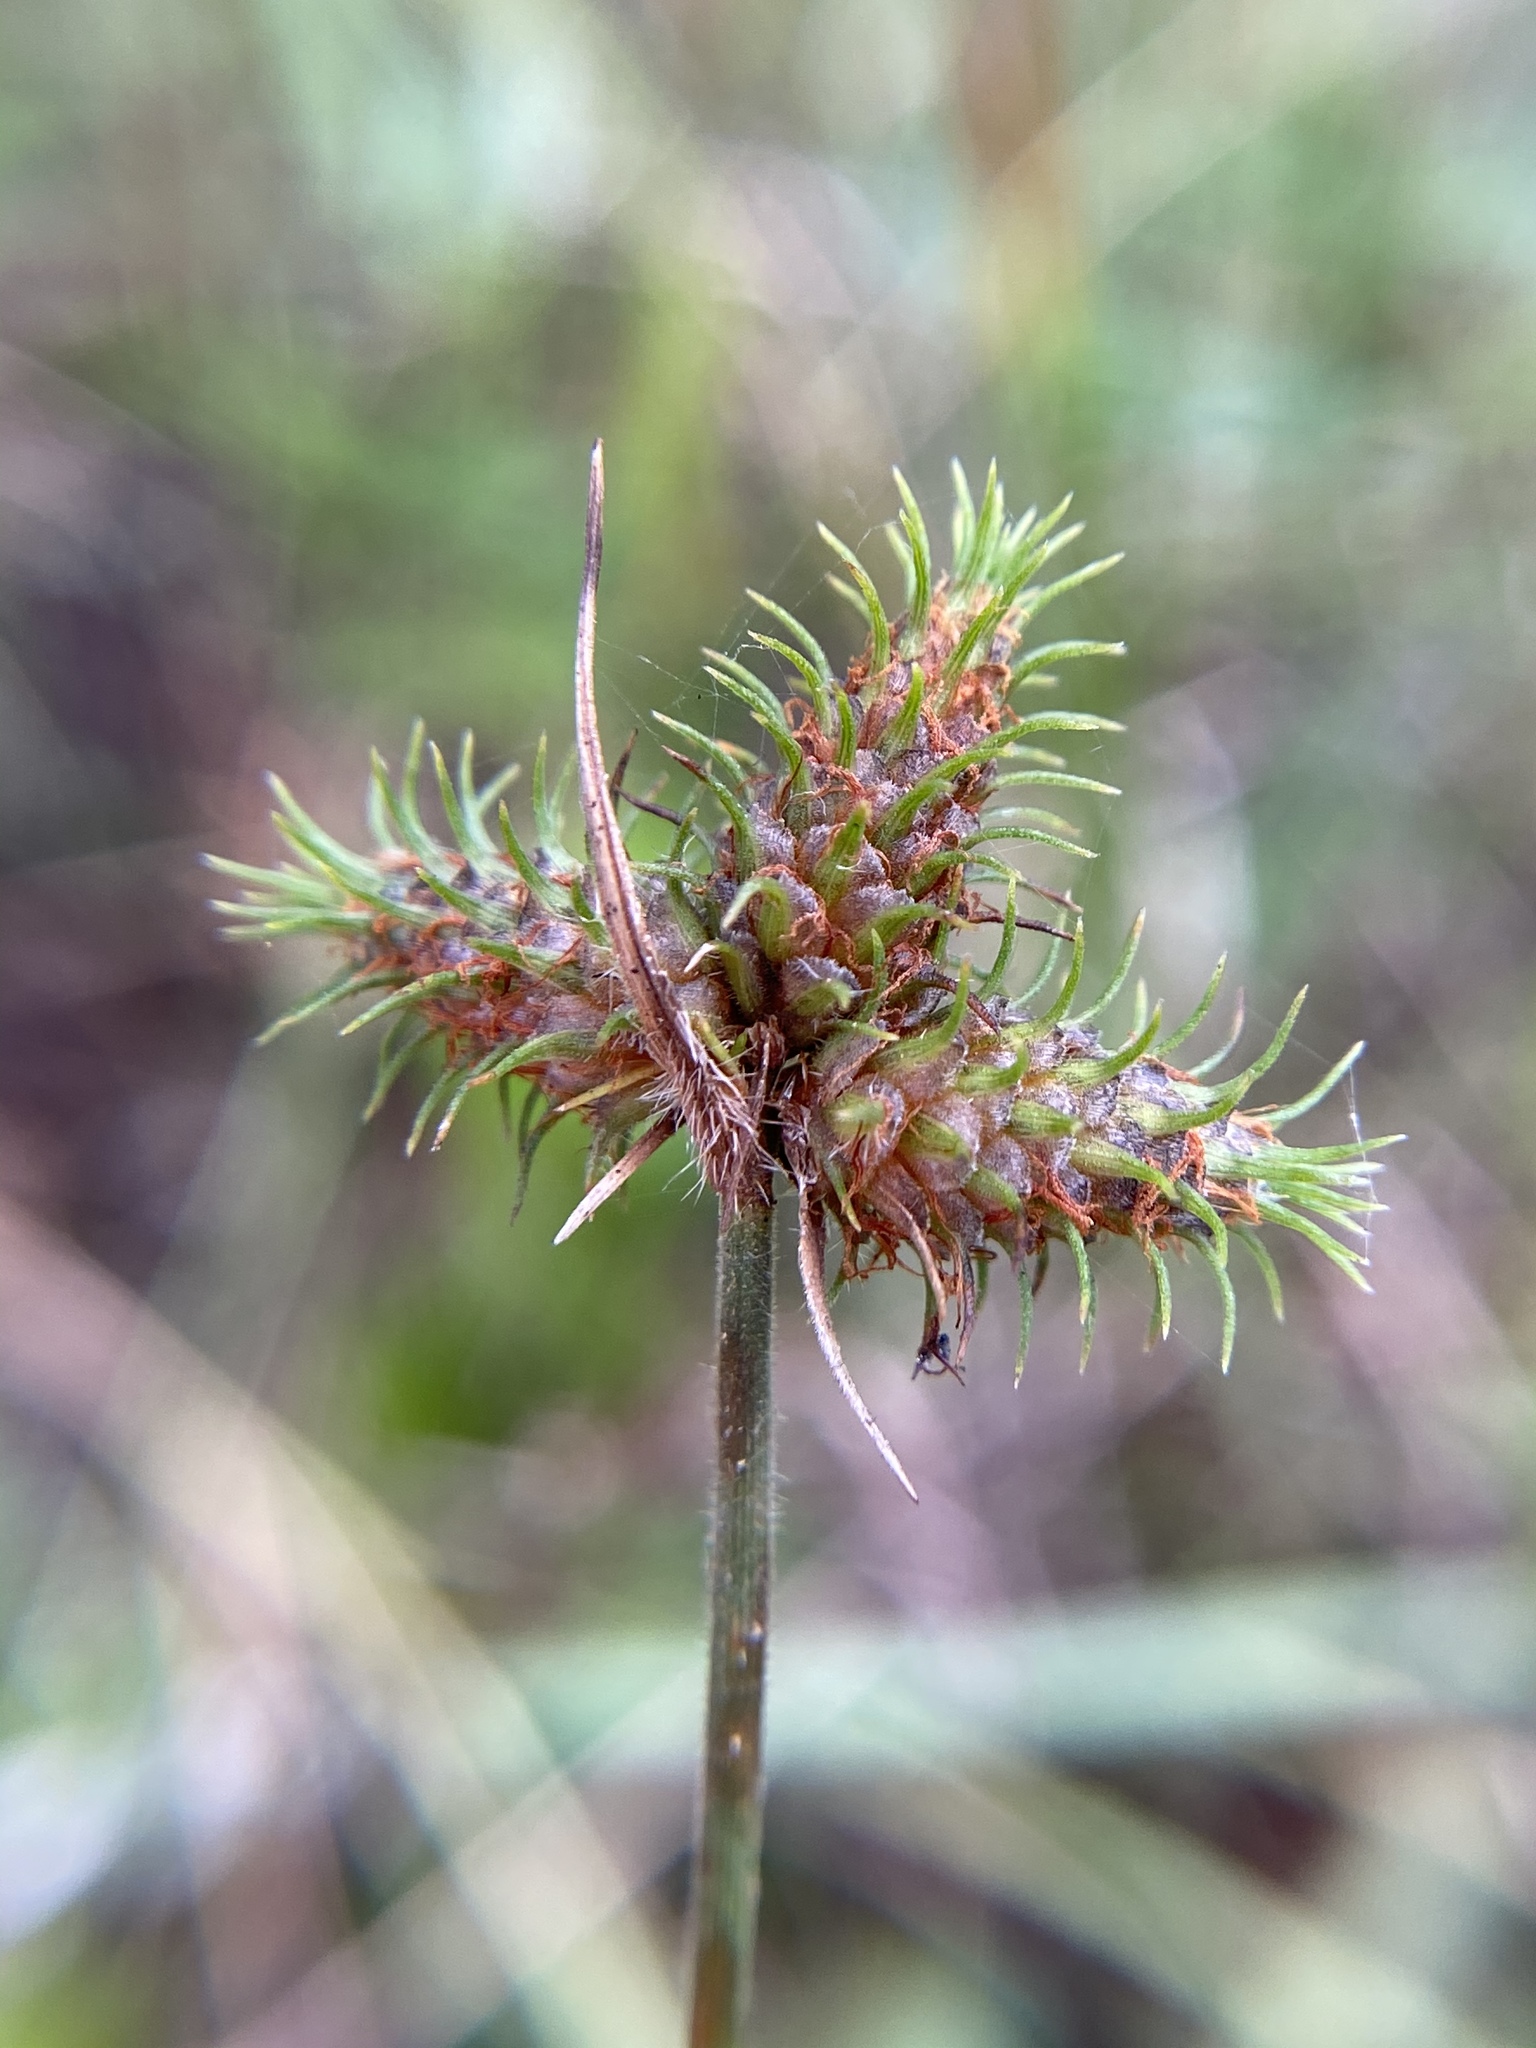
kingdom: Plantae
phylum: Tracheophyta
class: Liliopsida
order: Poales
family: Cyperaceae
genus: Fuirena
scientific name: Fuirena breviseta
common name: Saltmarsh umbrella sedge
